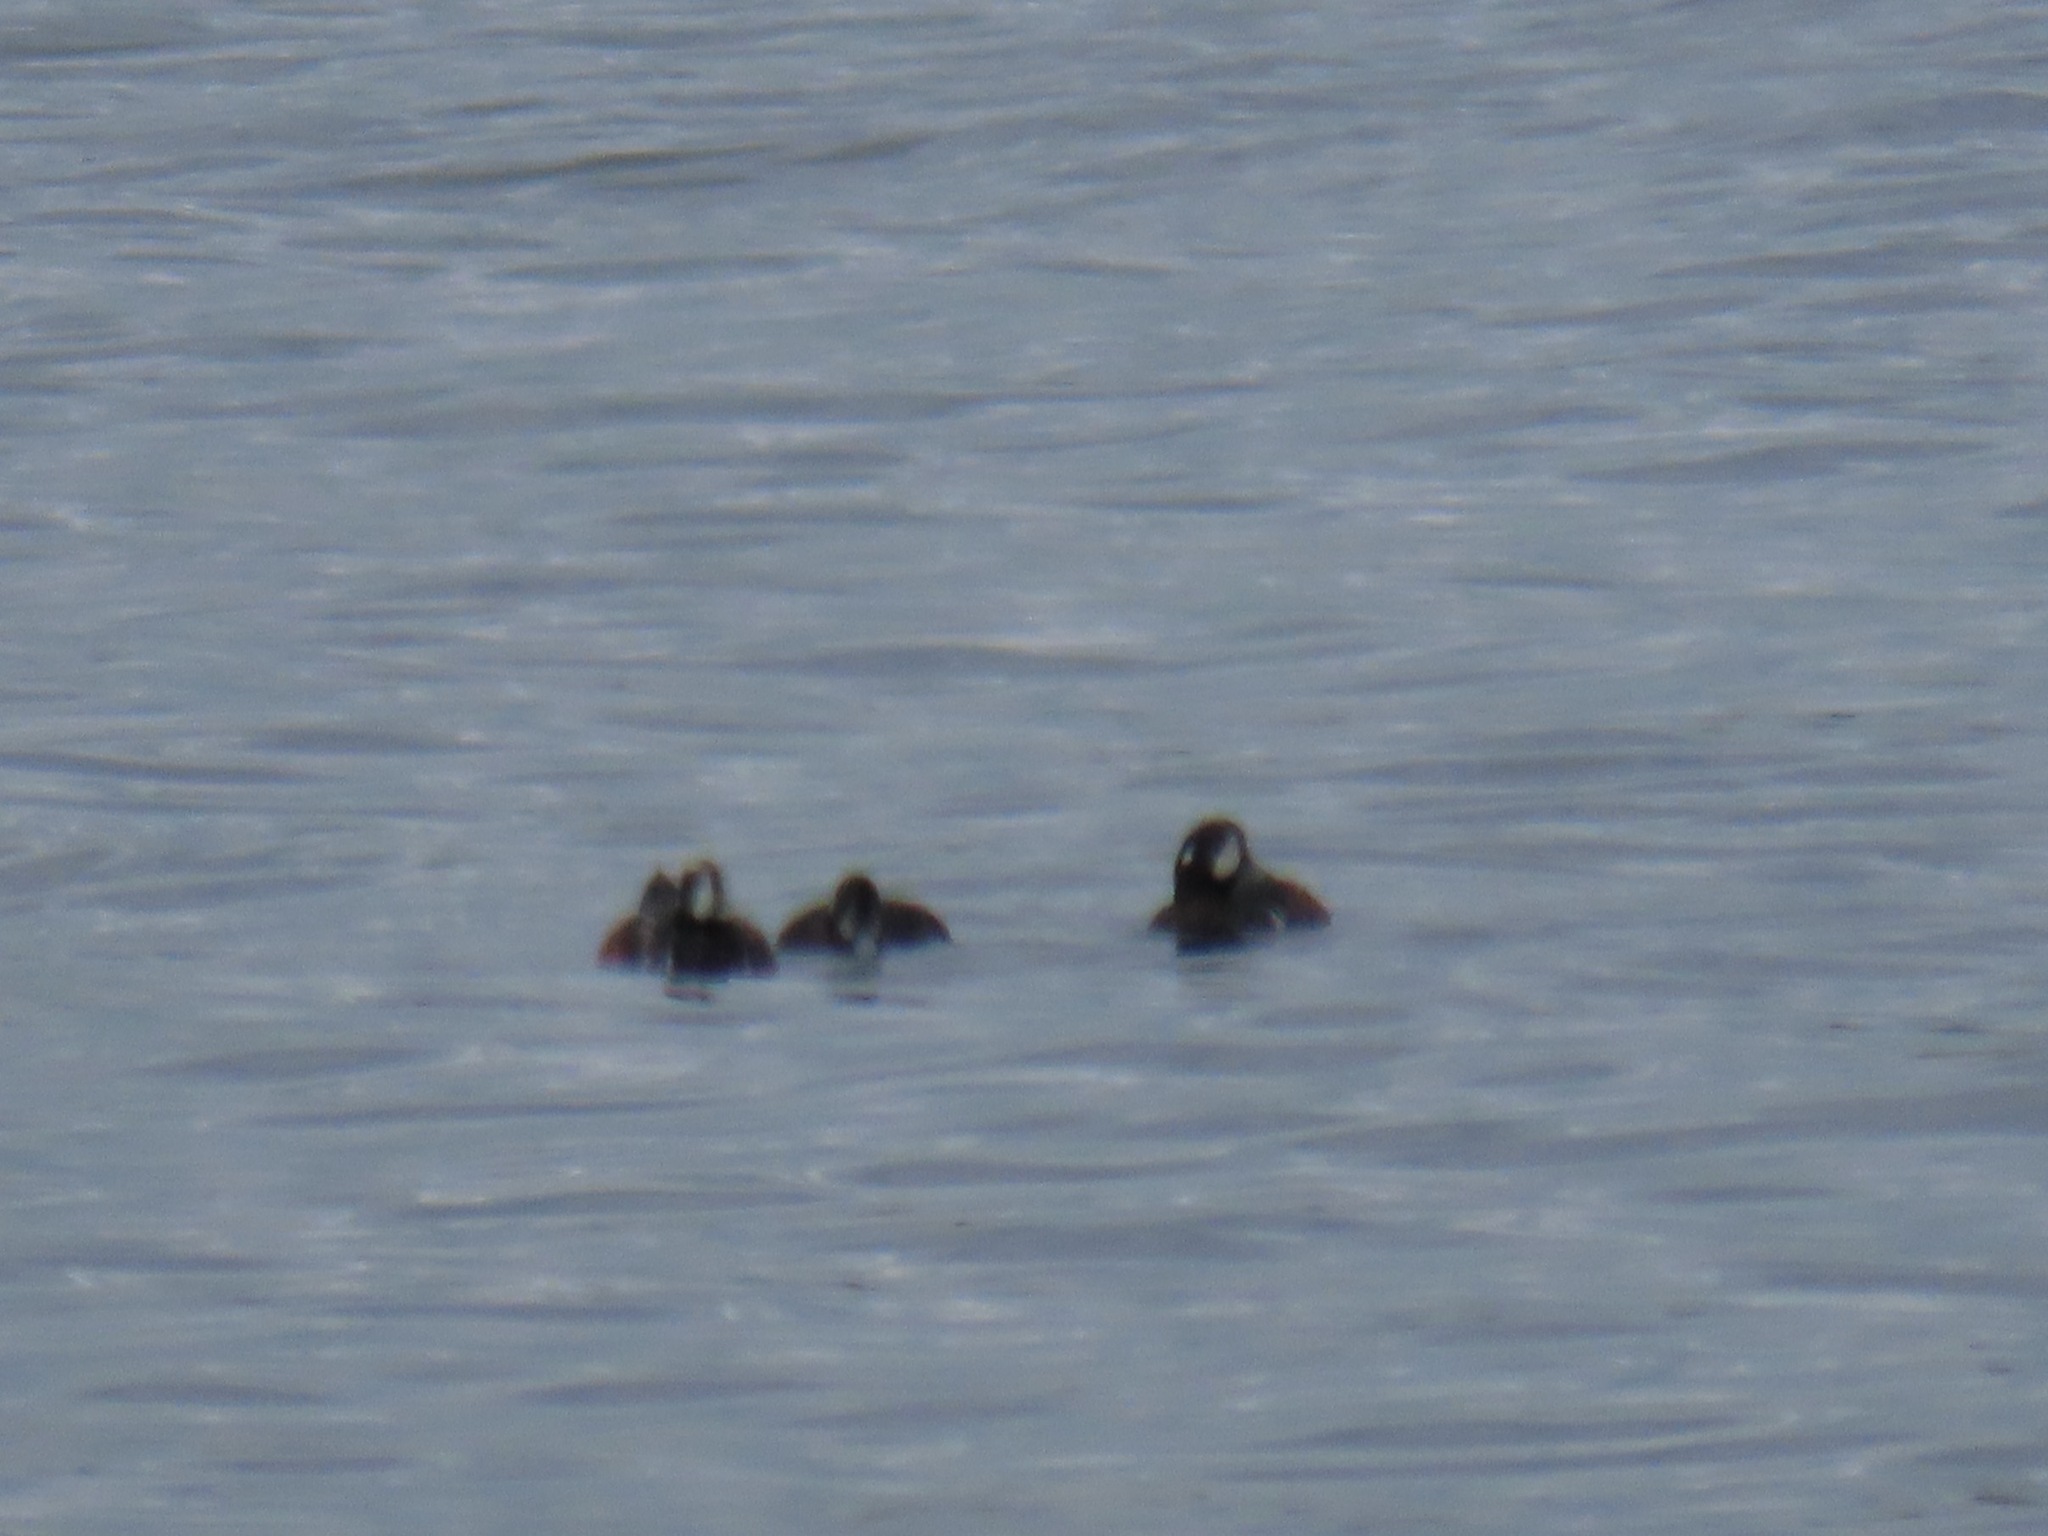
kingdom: Animalia
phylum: Chordata
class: Aves
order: Anseriformes
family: Anatidae
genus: Histrionicus
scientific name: Histrionicus histrionicus
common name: Harlequin duck
